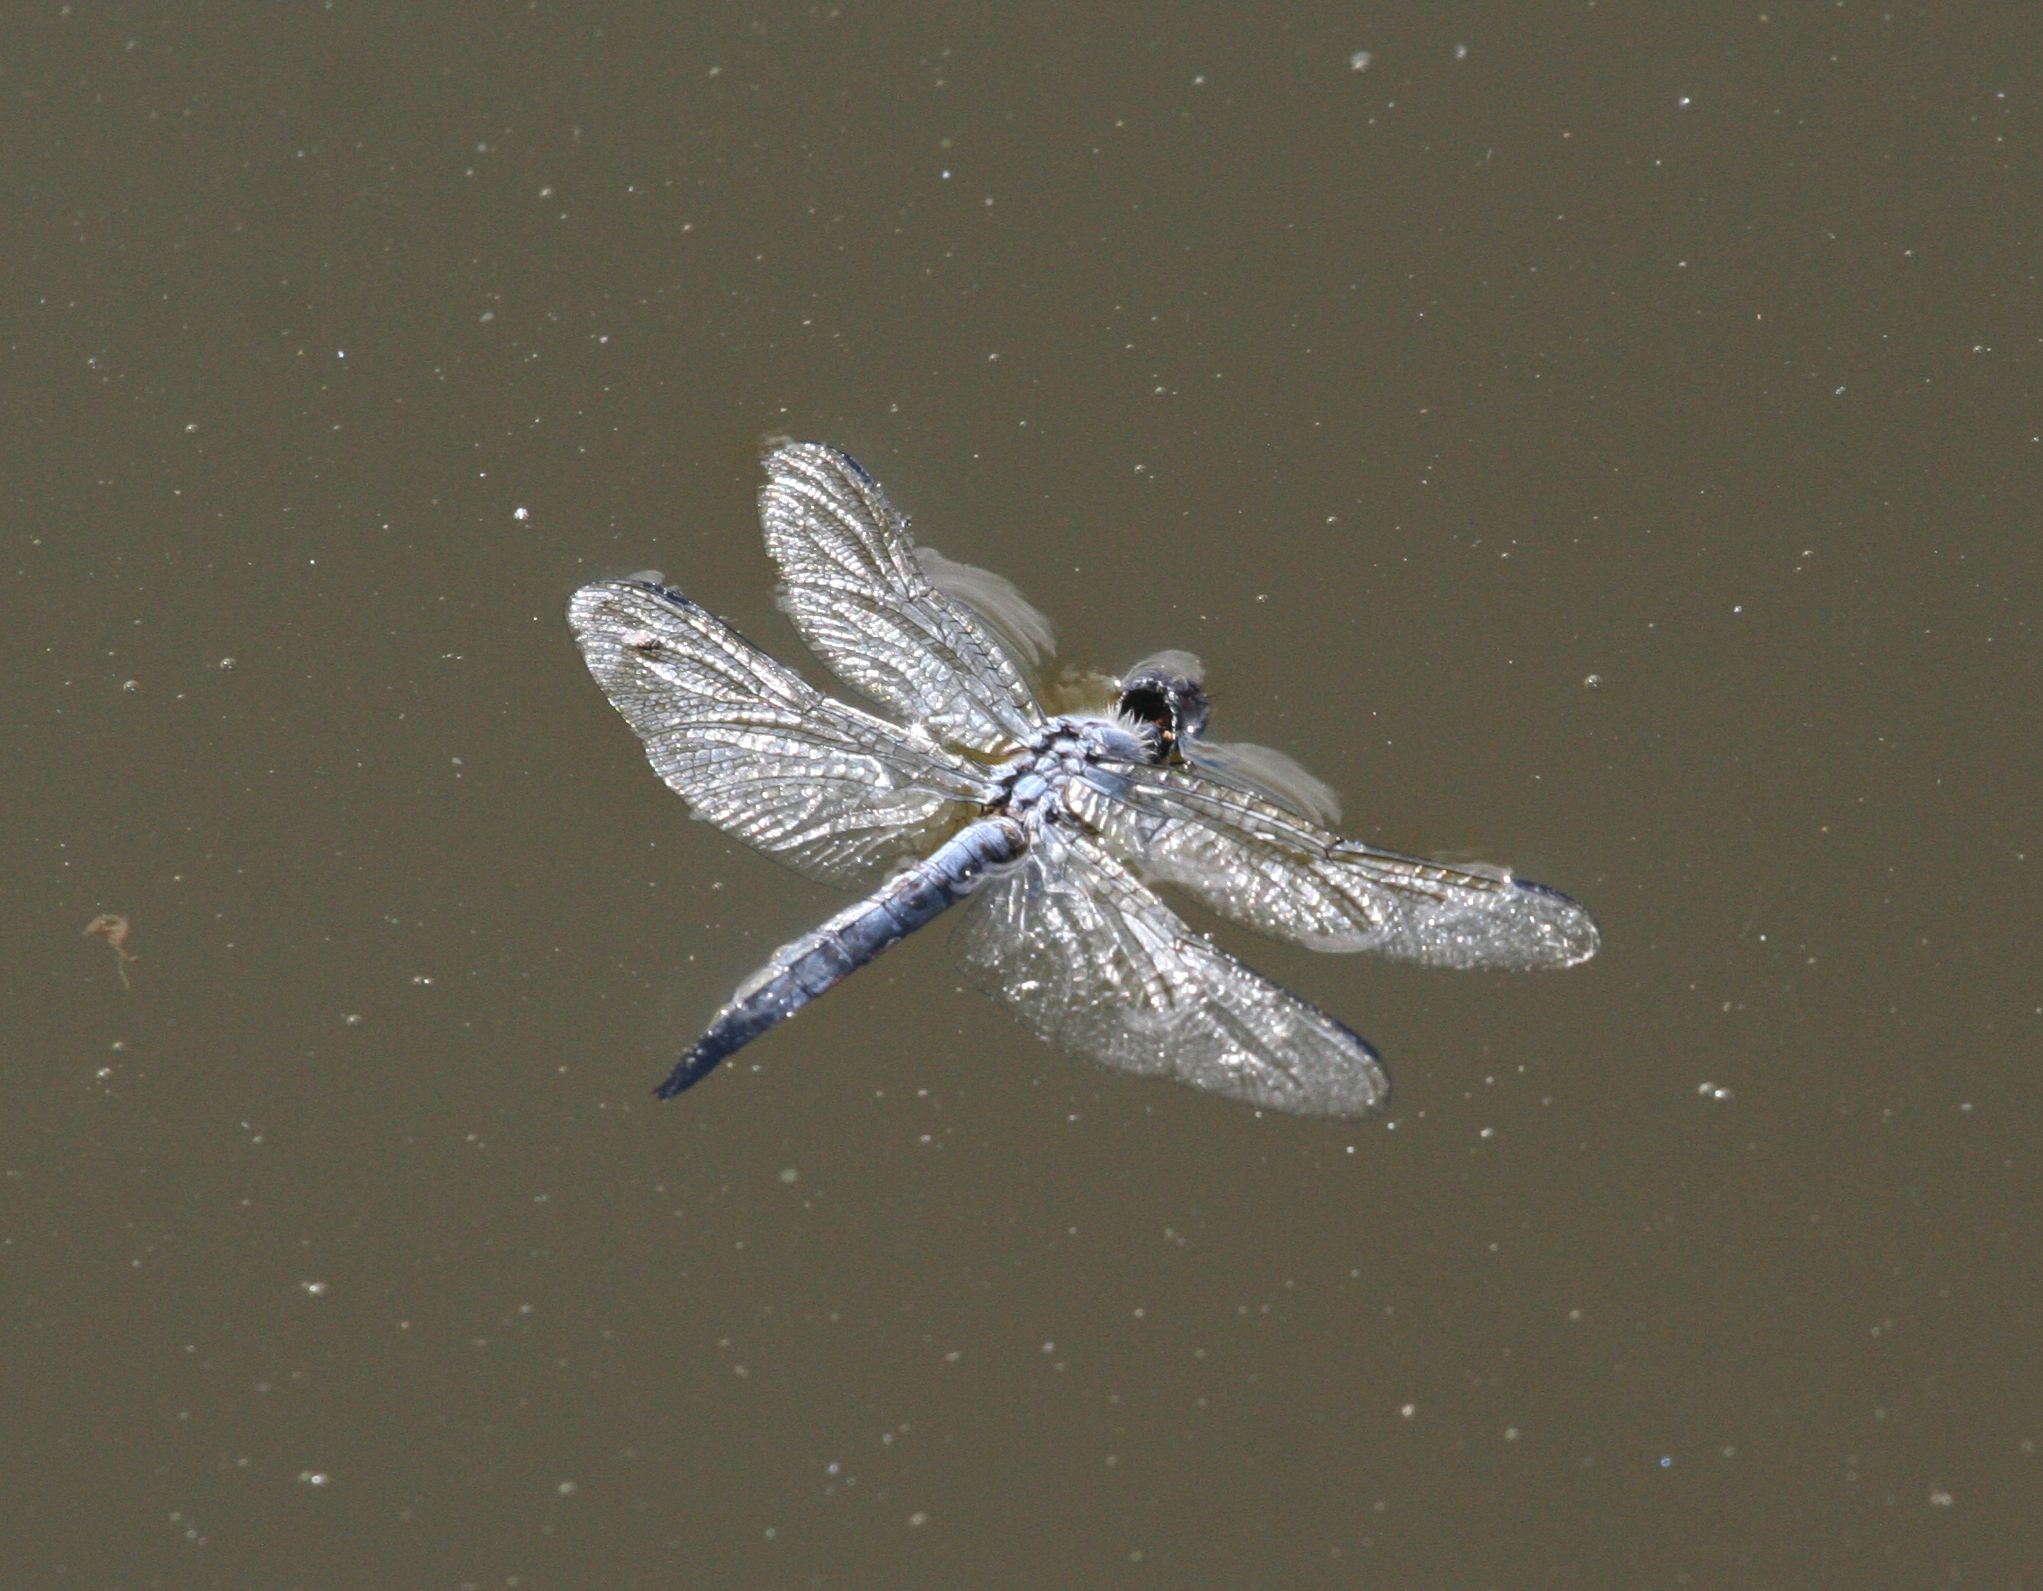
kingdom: Animalia
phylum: Arthropoda
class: Insecta
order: Odonata
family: Libellulidae
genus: Deielia
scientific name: Deielia phaon
